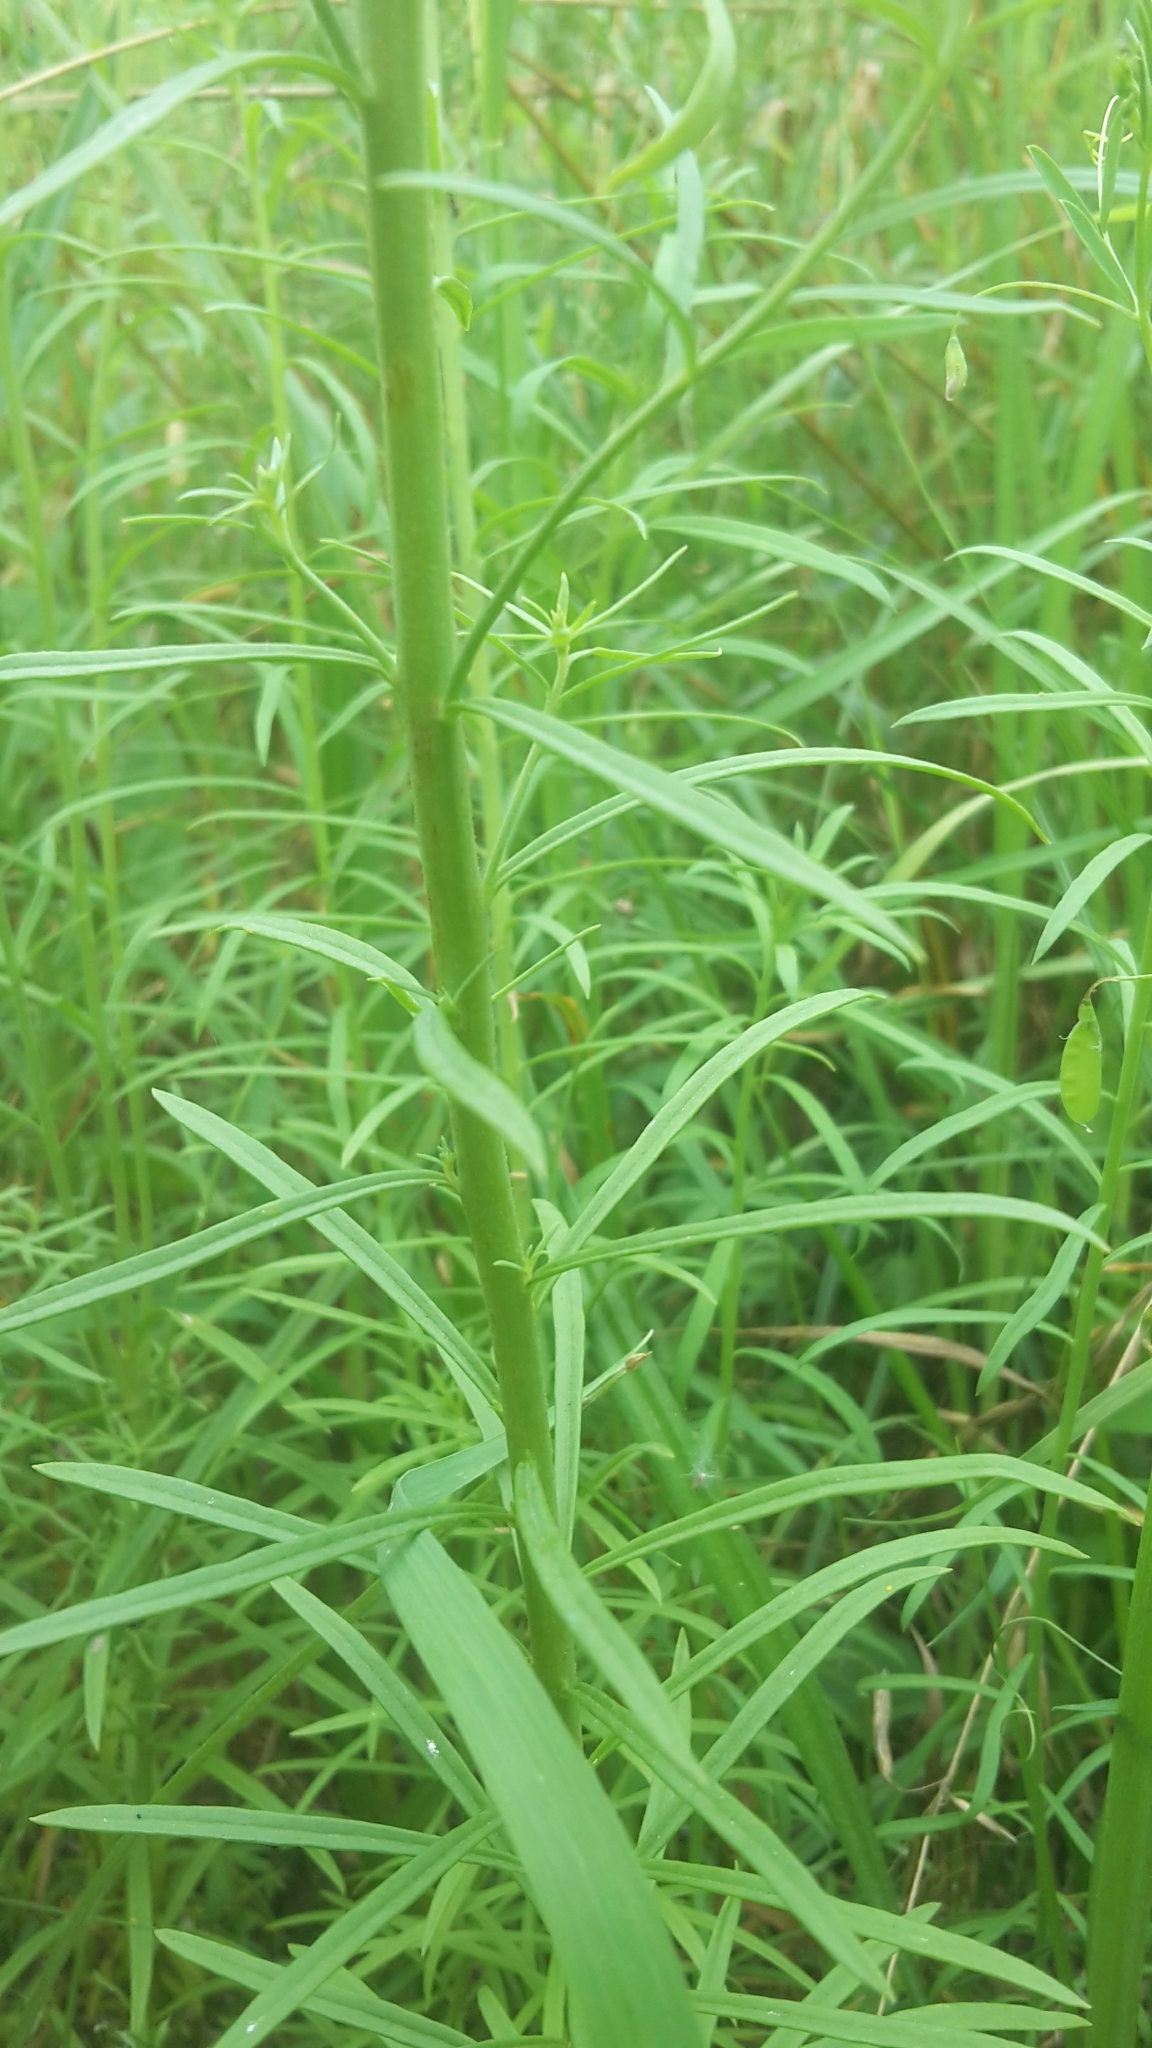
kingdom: Plantae
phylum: Tracheophyta
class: Magnoliopsida
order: Lamiales
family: Plantaginaceae
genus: Linaria
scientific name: Linaria vulgaris
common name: Butter and eggs
